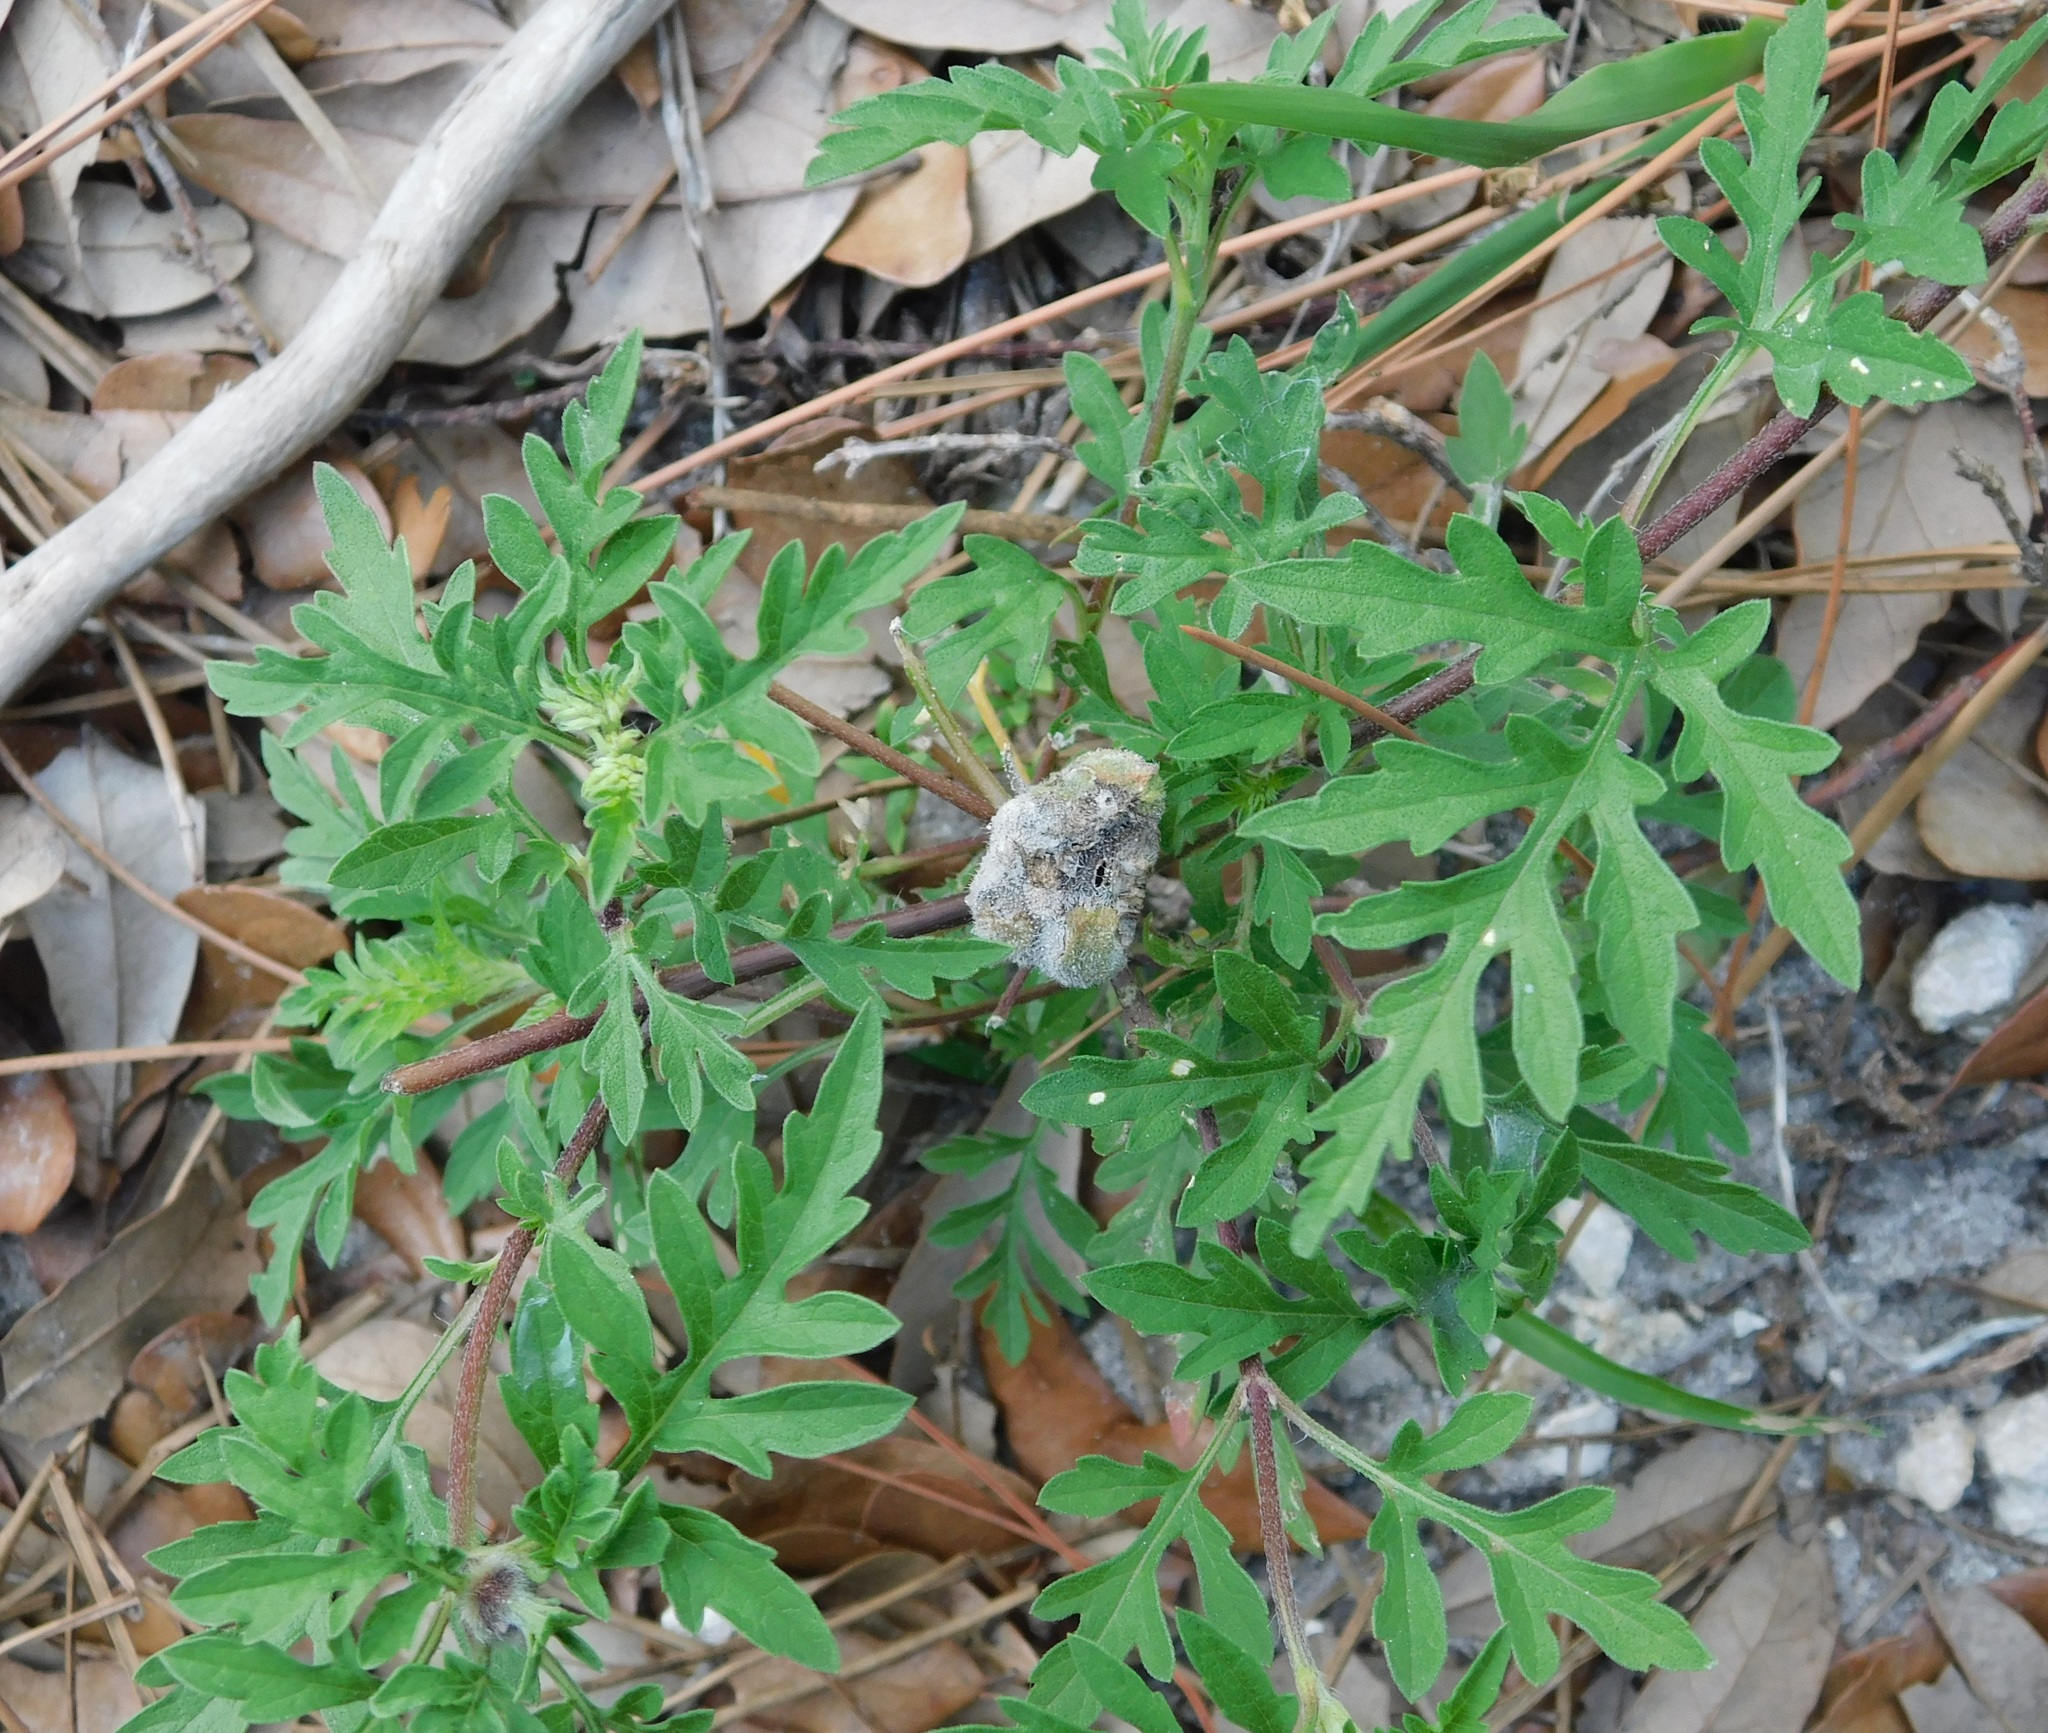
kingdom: Animalia
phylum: Arthropoda
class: Insecta
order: Diptera
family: Cecidomyiidae
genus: Asphondylia
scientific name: Asphondylia ambrosiae
